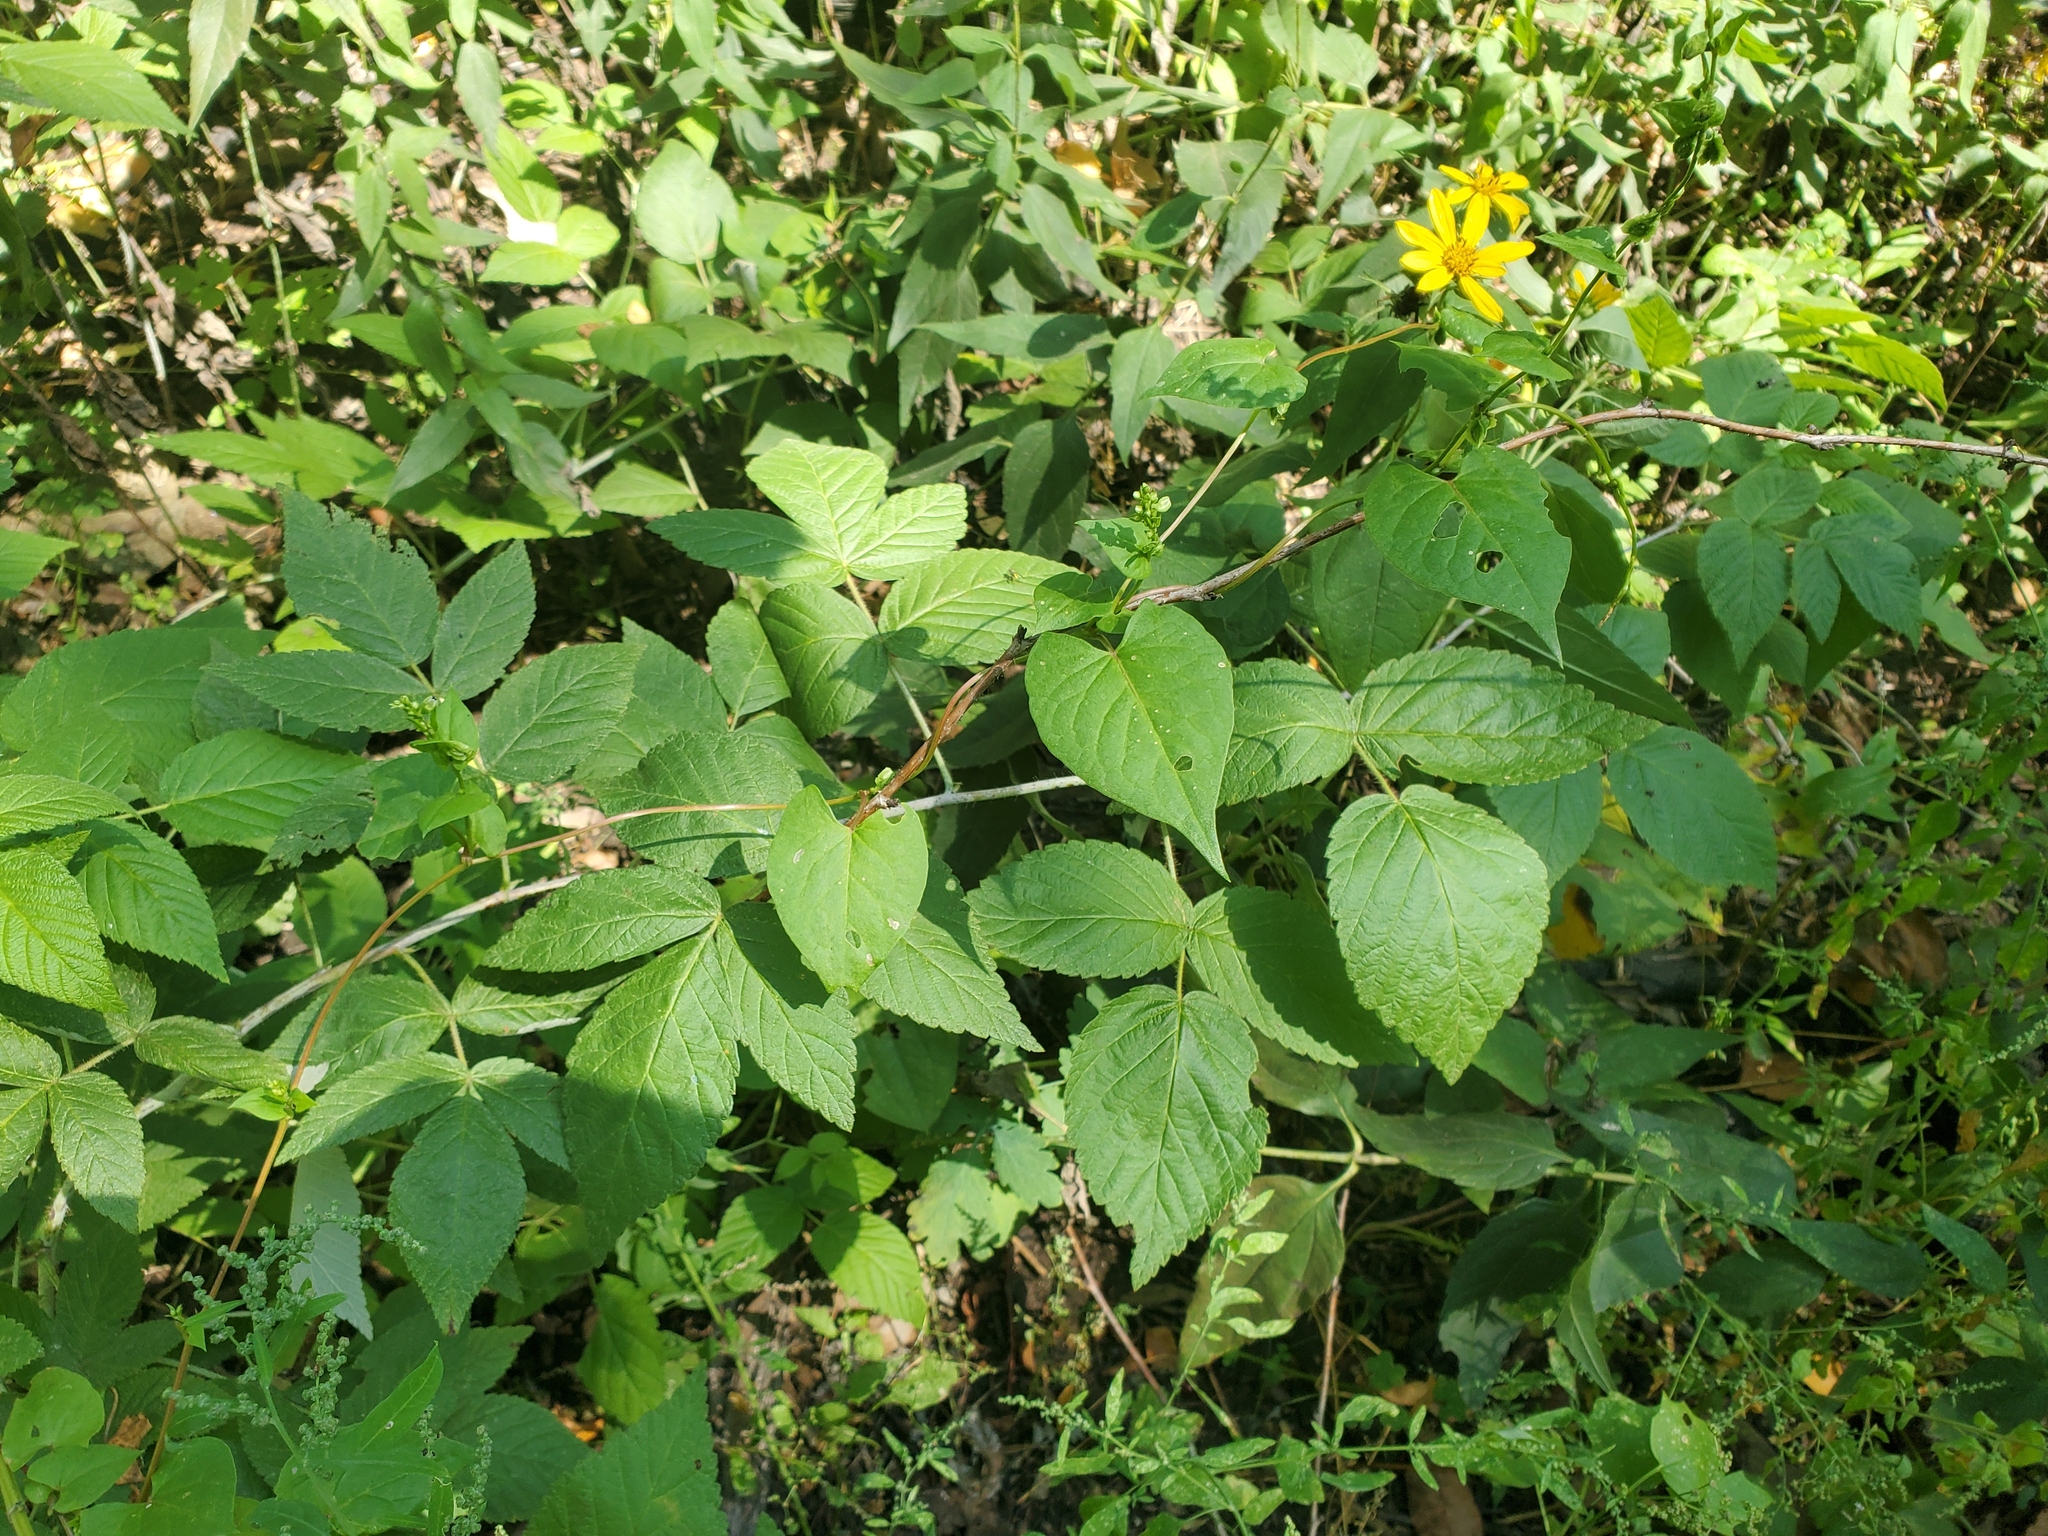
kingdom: Plantae
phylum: Tracheophyta
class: Magnoliopsida
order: Caryophyllales
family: Polygonaceae
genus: Fallopia
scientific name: Fallopia scandens
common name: Climbing false buckwheat
